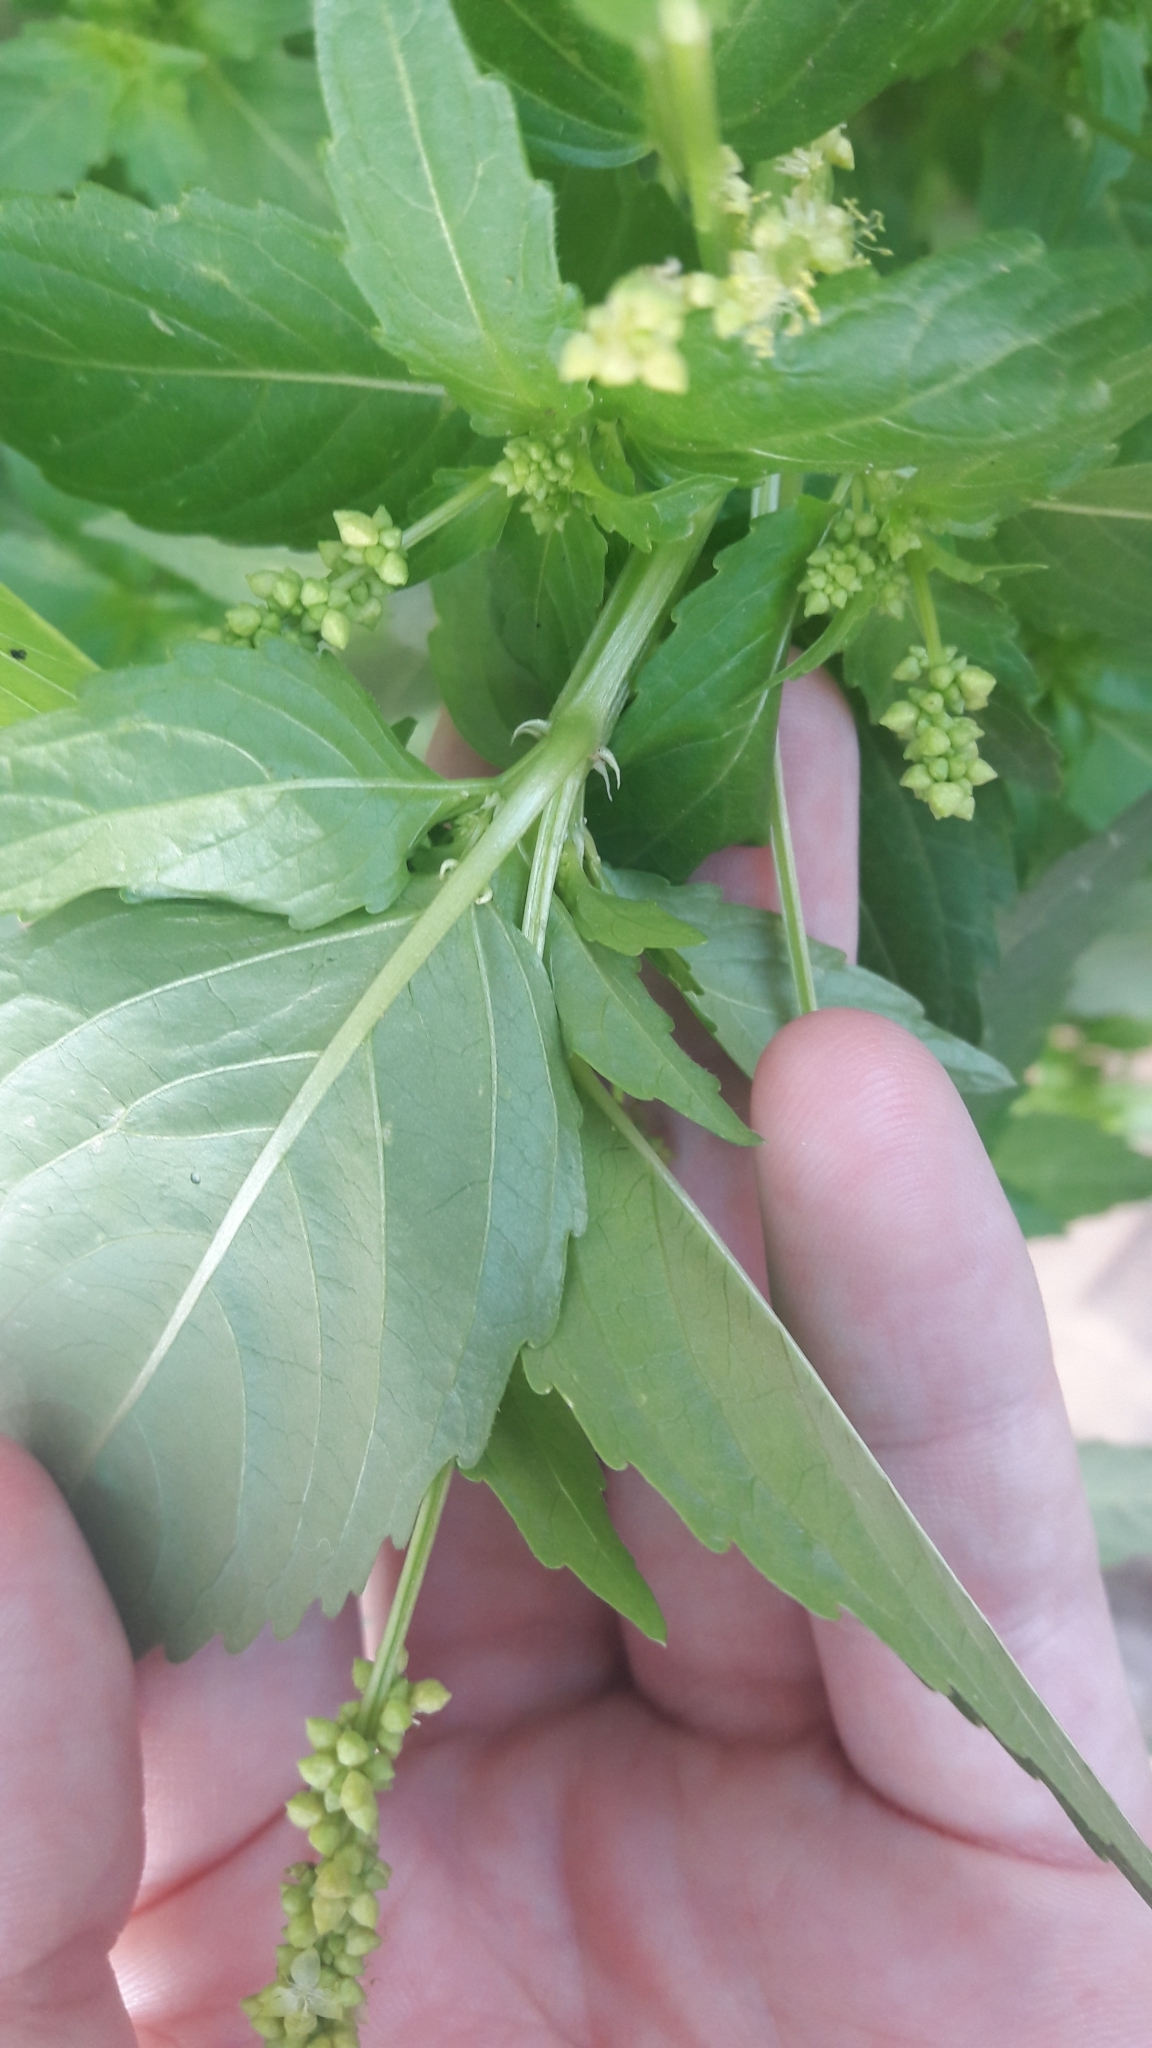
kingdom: Plantae
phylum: Tracheophyta
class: Magnoliopsida
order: Malpighiales
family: Euphorbiaceae
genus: Mercurialis
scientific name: Mercurialis annua
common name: Annual mercury
